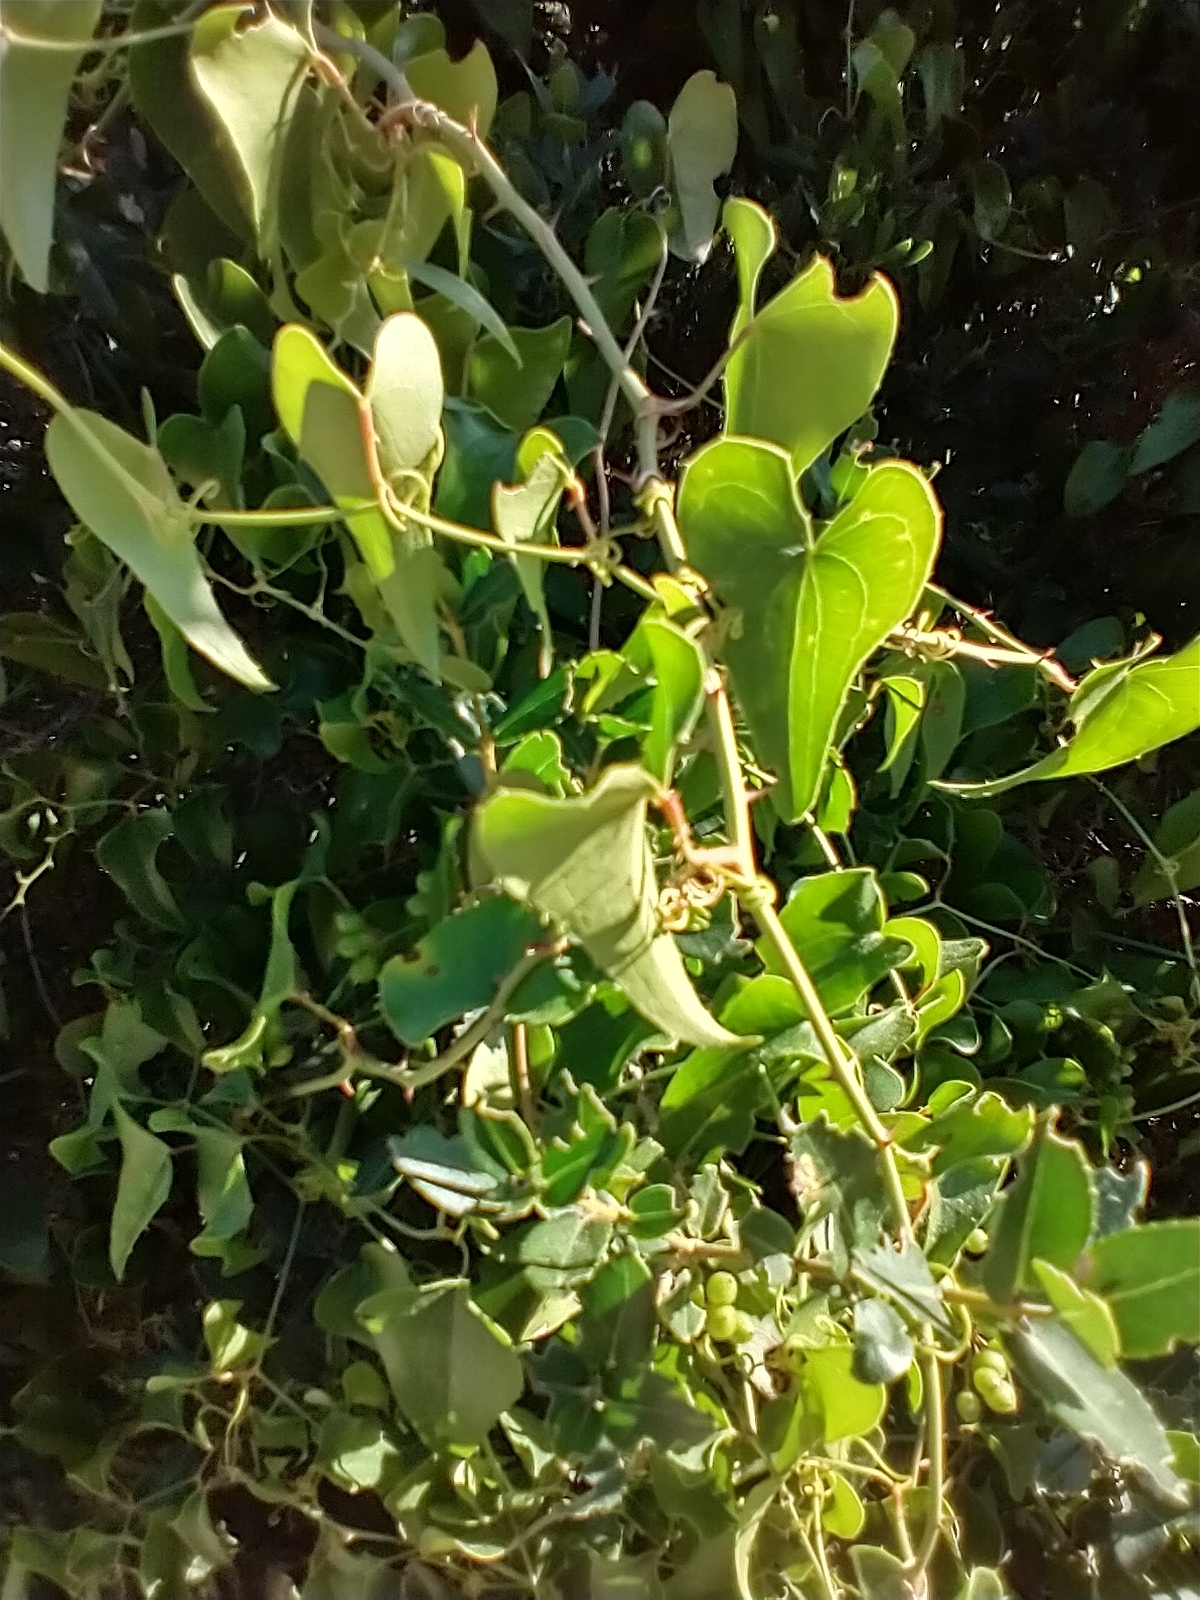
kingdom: Plantae
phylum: Tracheophyta
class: Liliopsida
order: Liliales
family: Smilacaceae
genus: Smilax
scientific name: Smilax aspera
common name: Common smilax
